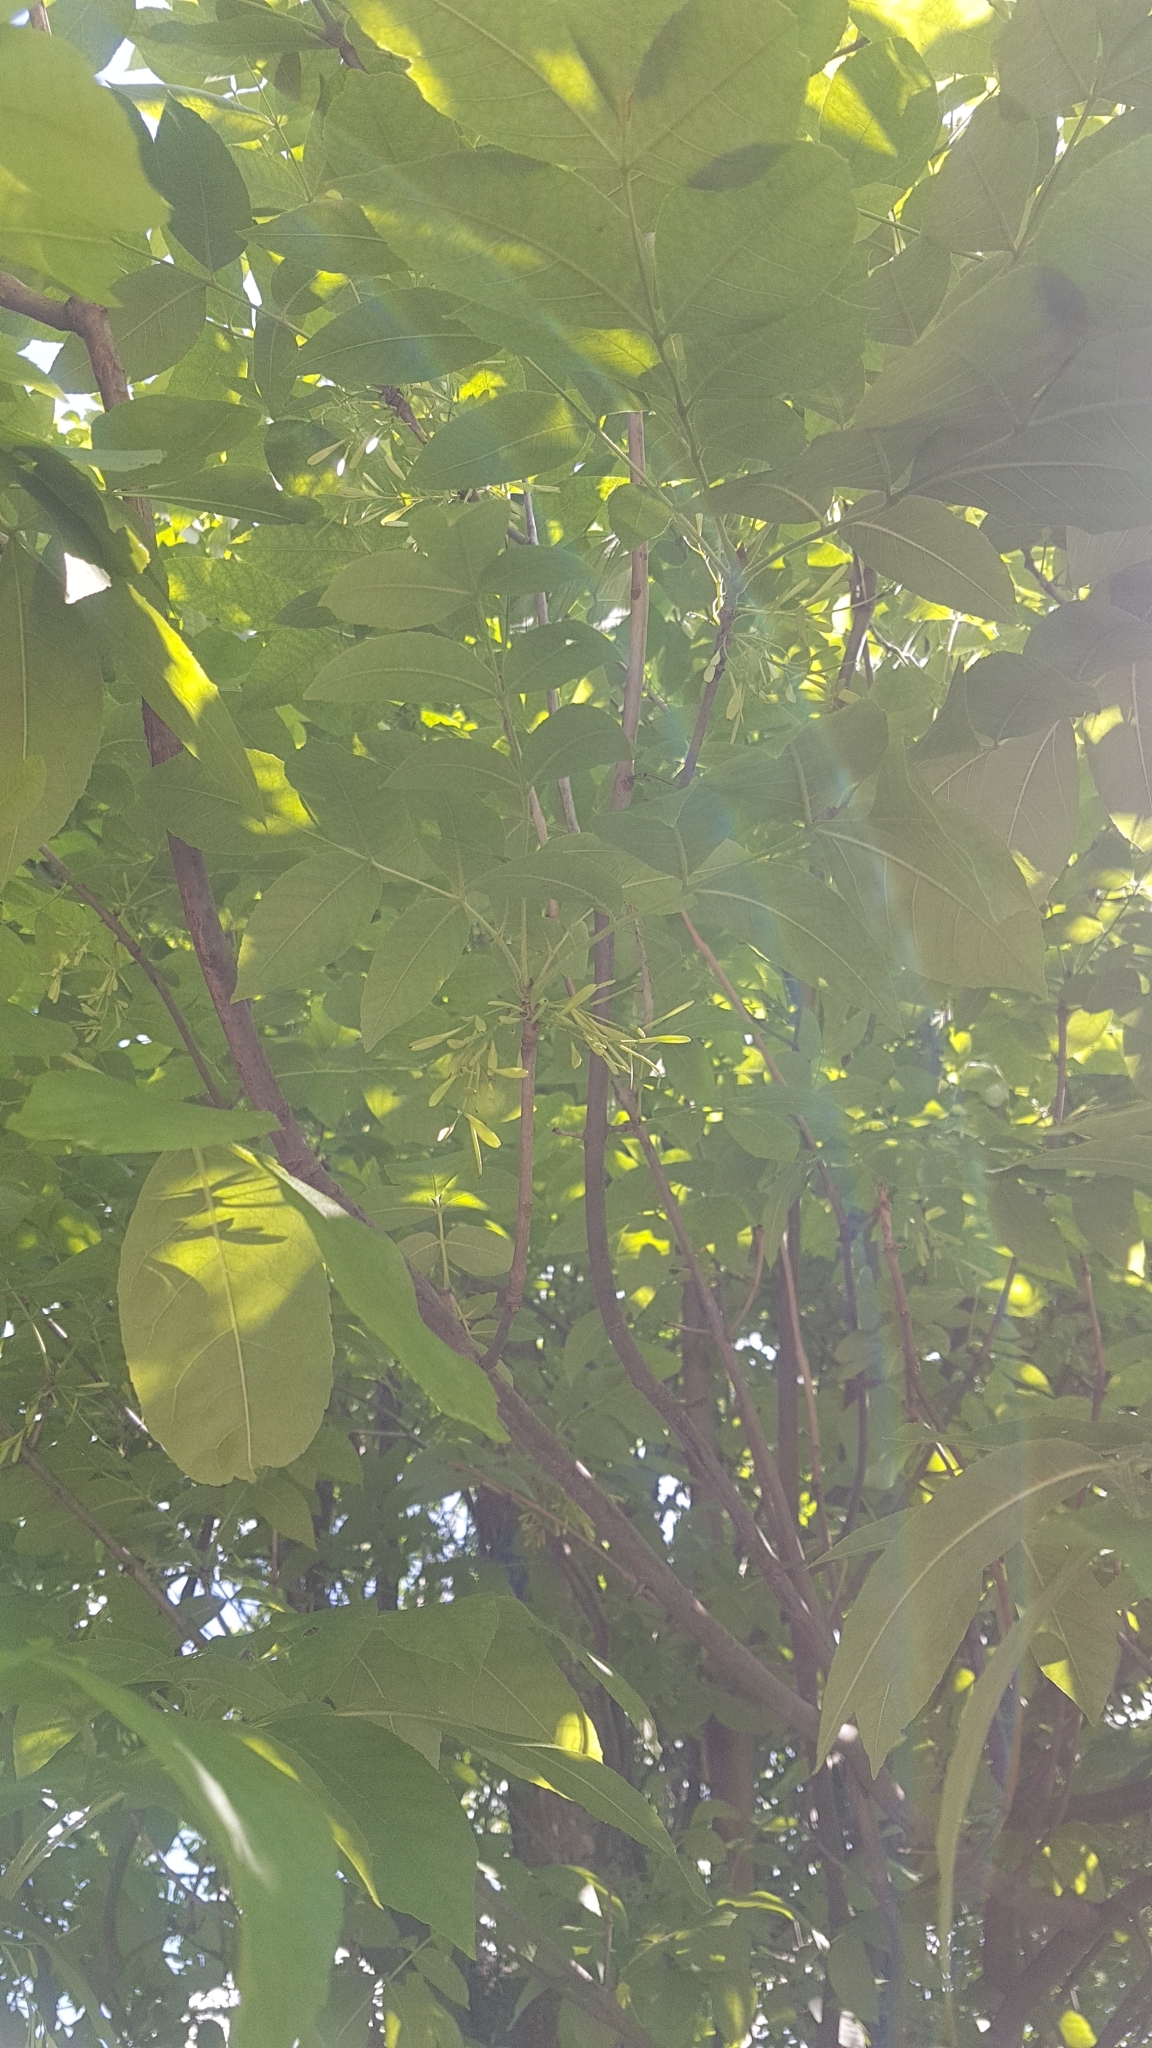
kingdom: Plantae
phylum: Tracheophyta
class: Magnoliopsida
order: Lamiales
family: Oleaceae
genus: Fraxinus
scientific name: Fraxinus excelsior
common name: European ash
